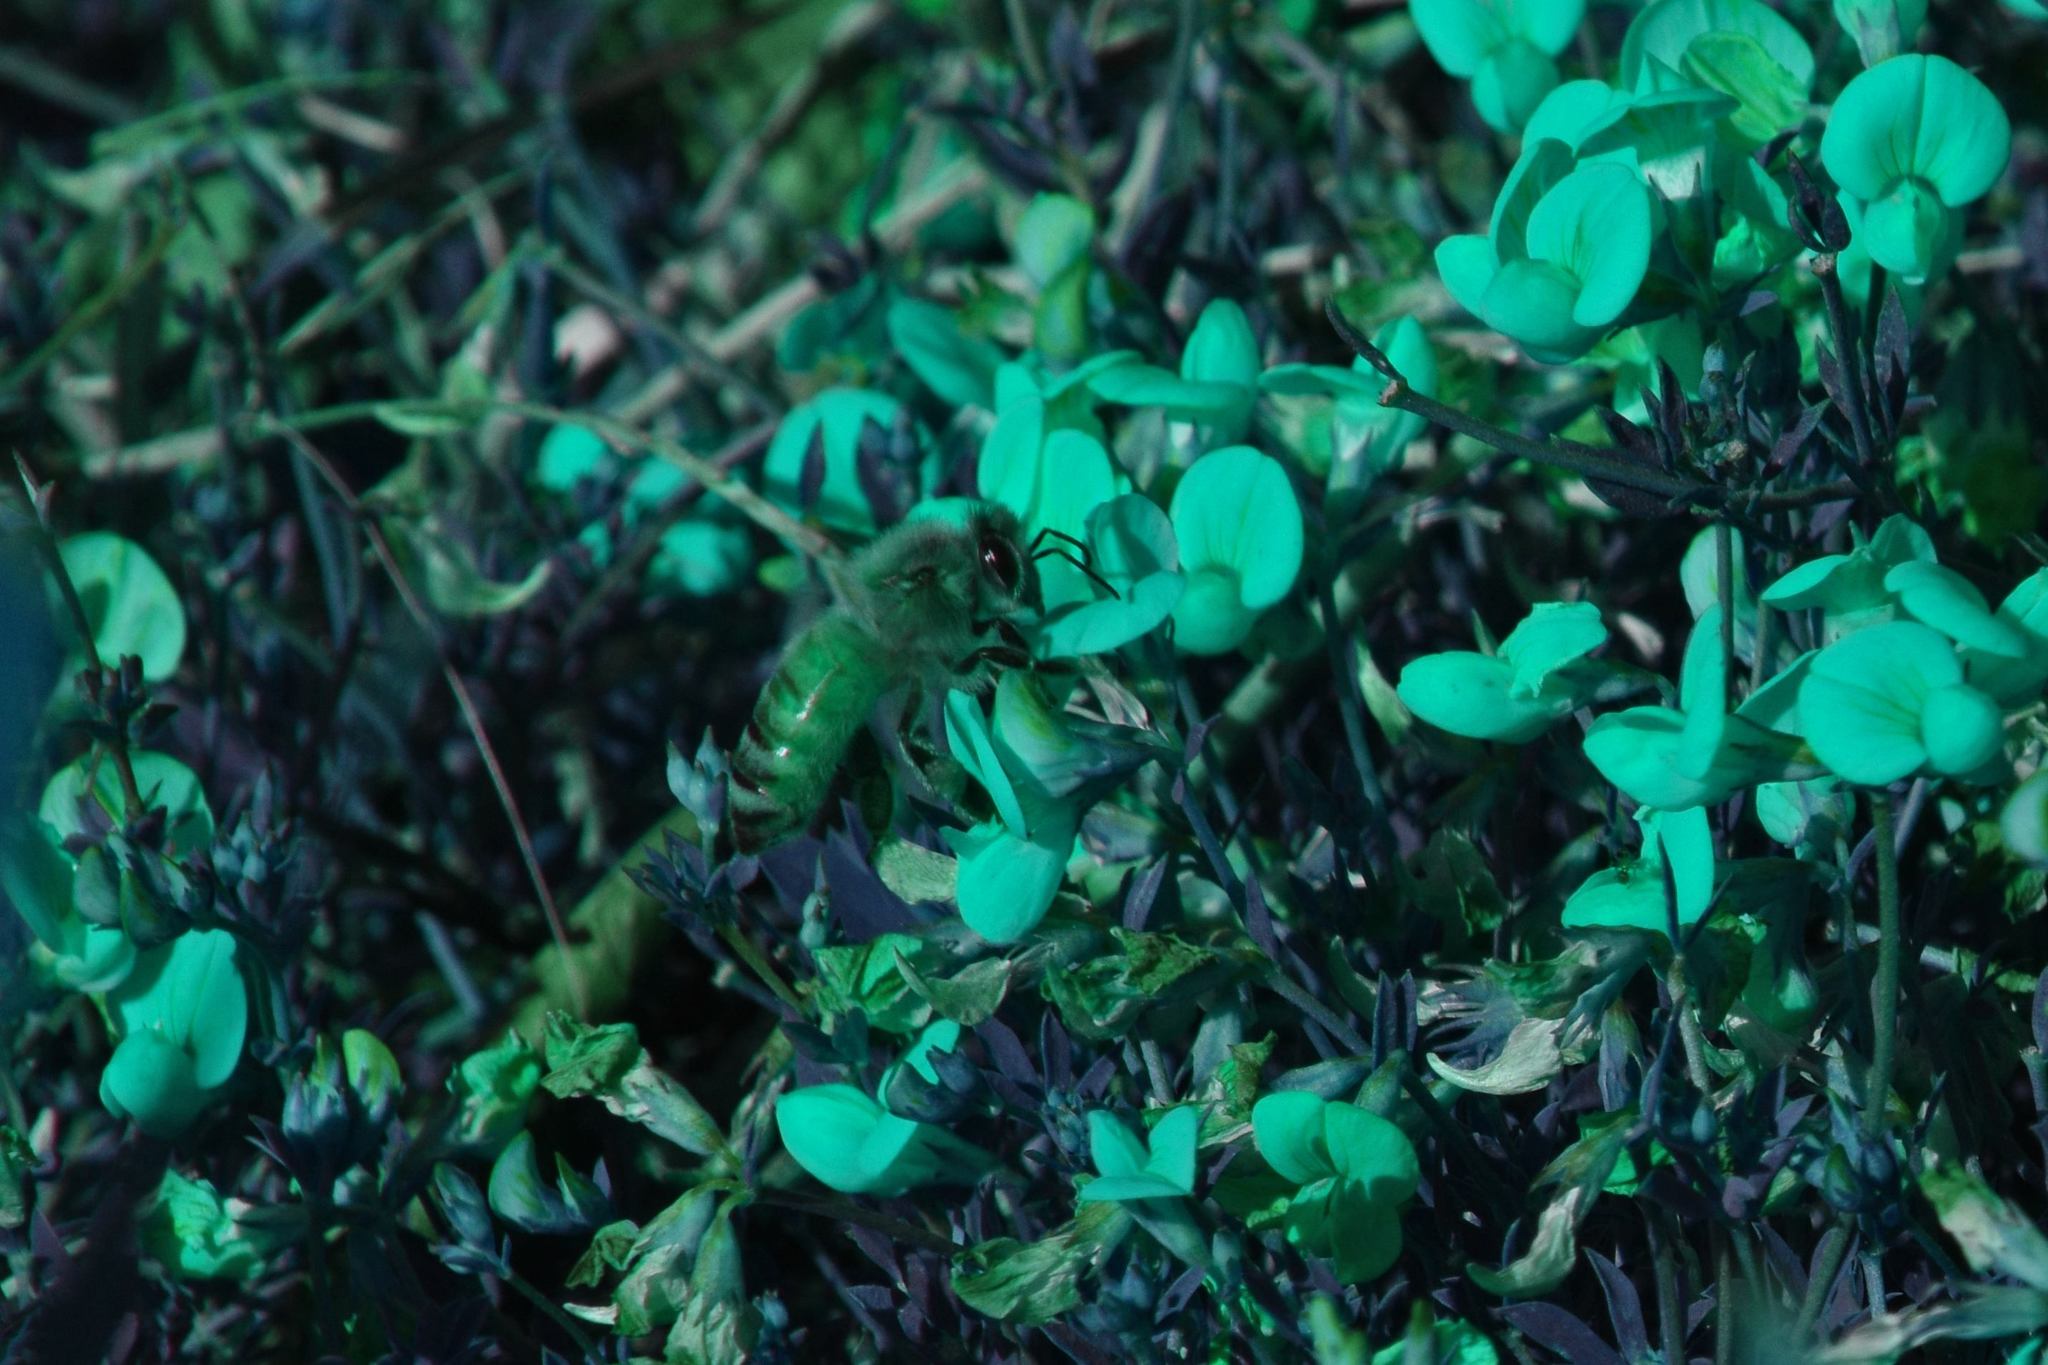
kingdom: Animalia
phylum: Arthropoda
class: Insecta
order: Hymenoptera
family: Apidae
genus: Apis
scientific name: Apis mellifera
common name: Honey bee
